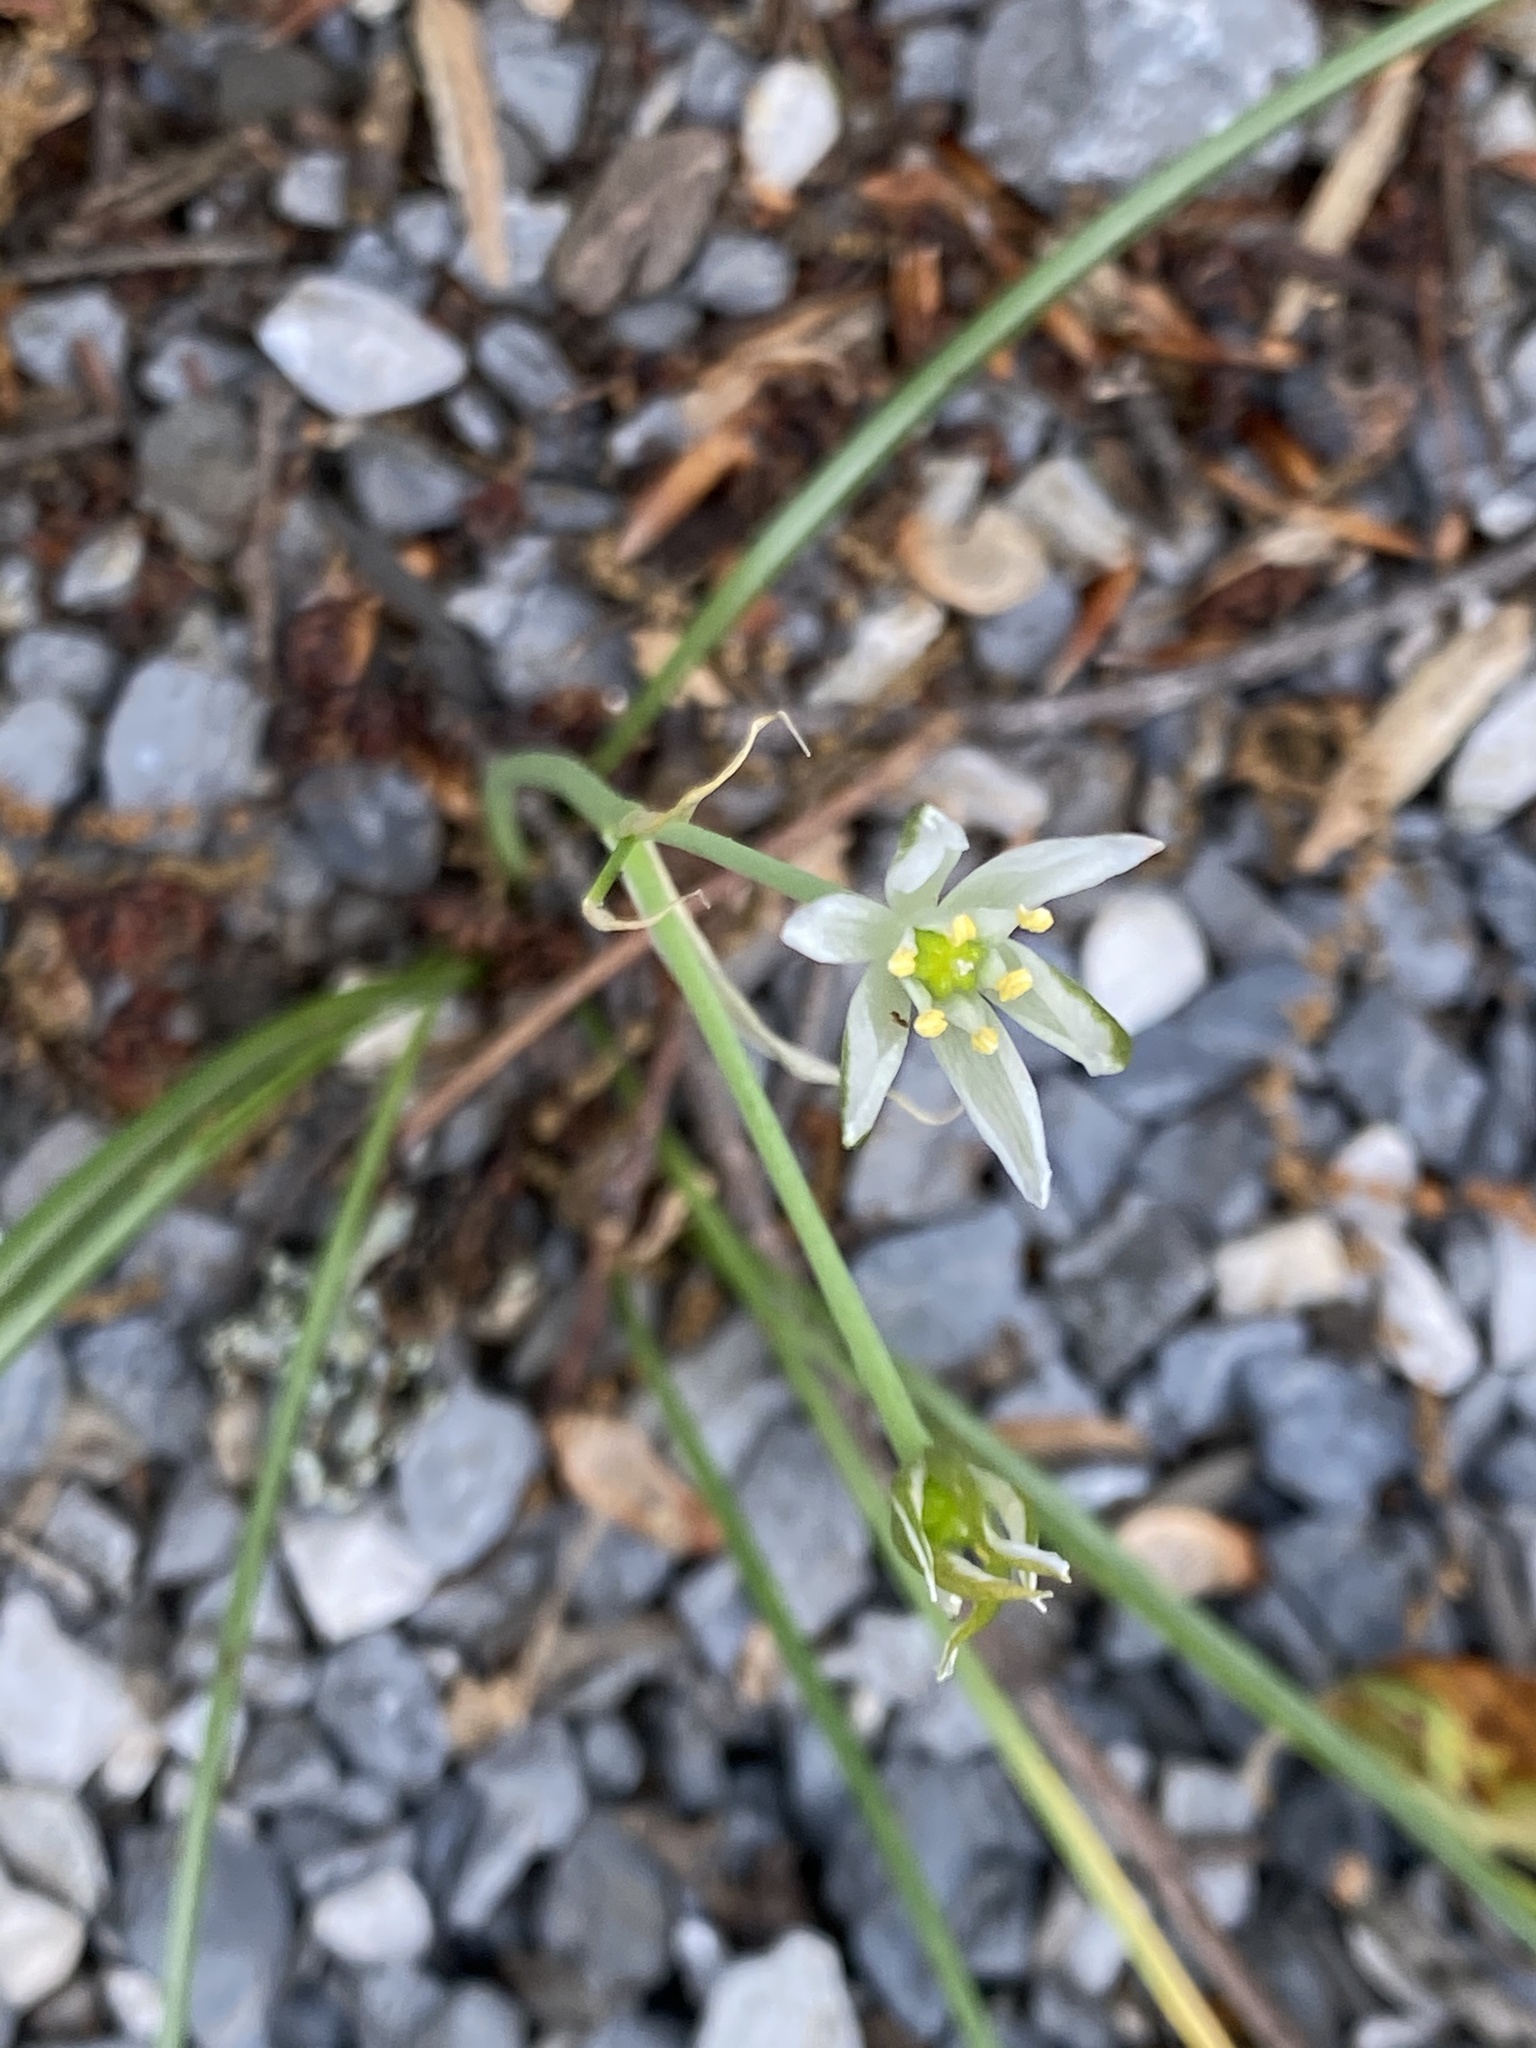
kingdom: Plantae
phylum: Tracheophyta
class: Liliopsida
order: Asparagales
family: Asparagaceae
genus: Ornithogalum
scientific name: Ornithogalum umbellatum
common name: Garden star-of-bethlehem
